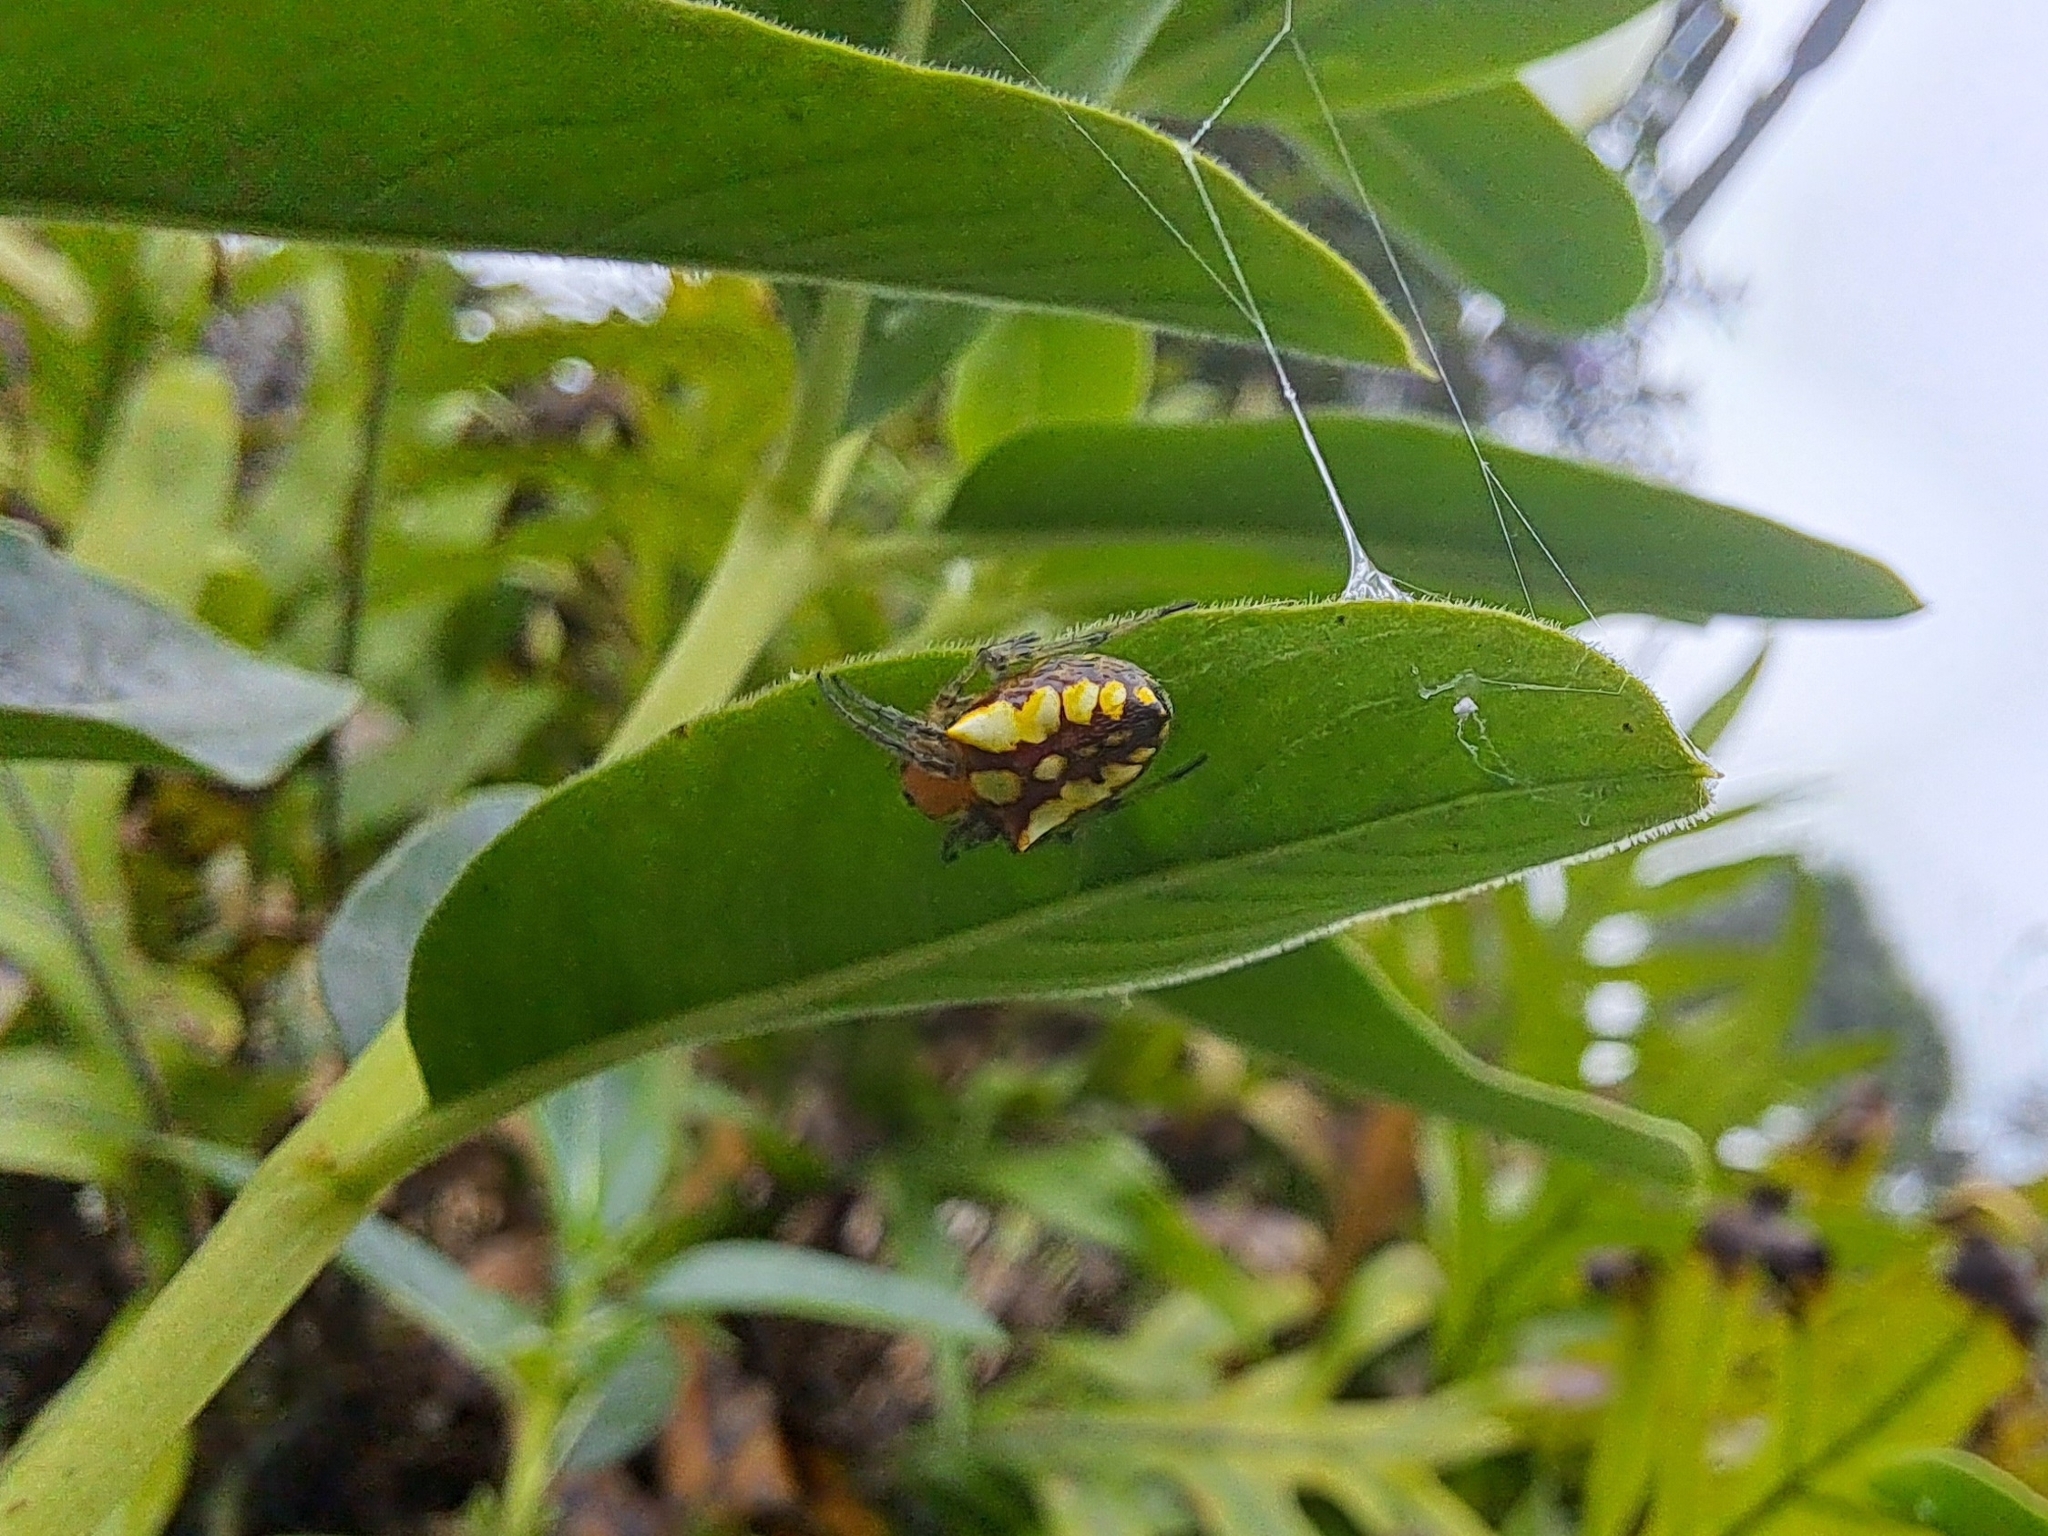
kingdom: Animalia
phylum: Arthropoda
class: Arachnida
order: Araneae
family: Araneidae
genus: Alpaida
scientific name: Alpaida bicornuta
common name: Orb weavers
